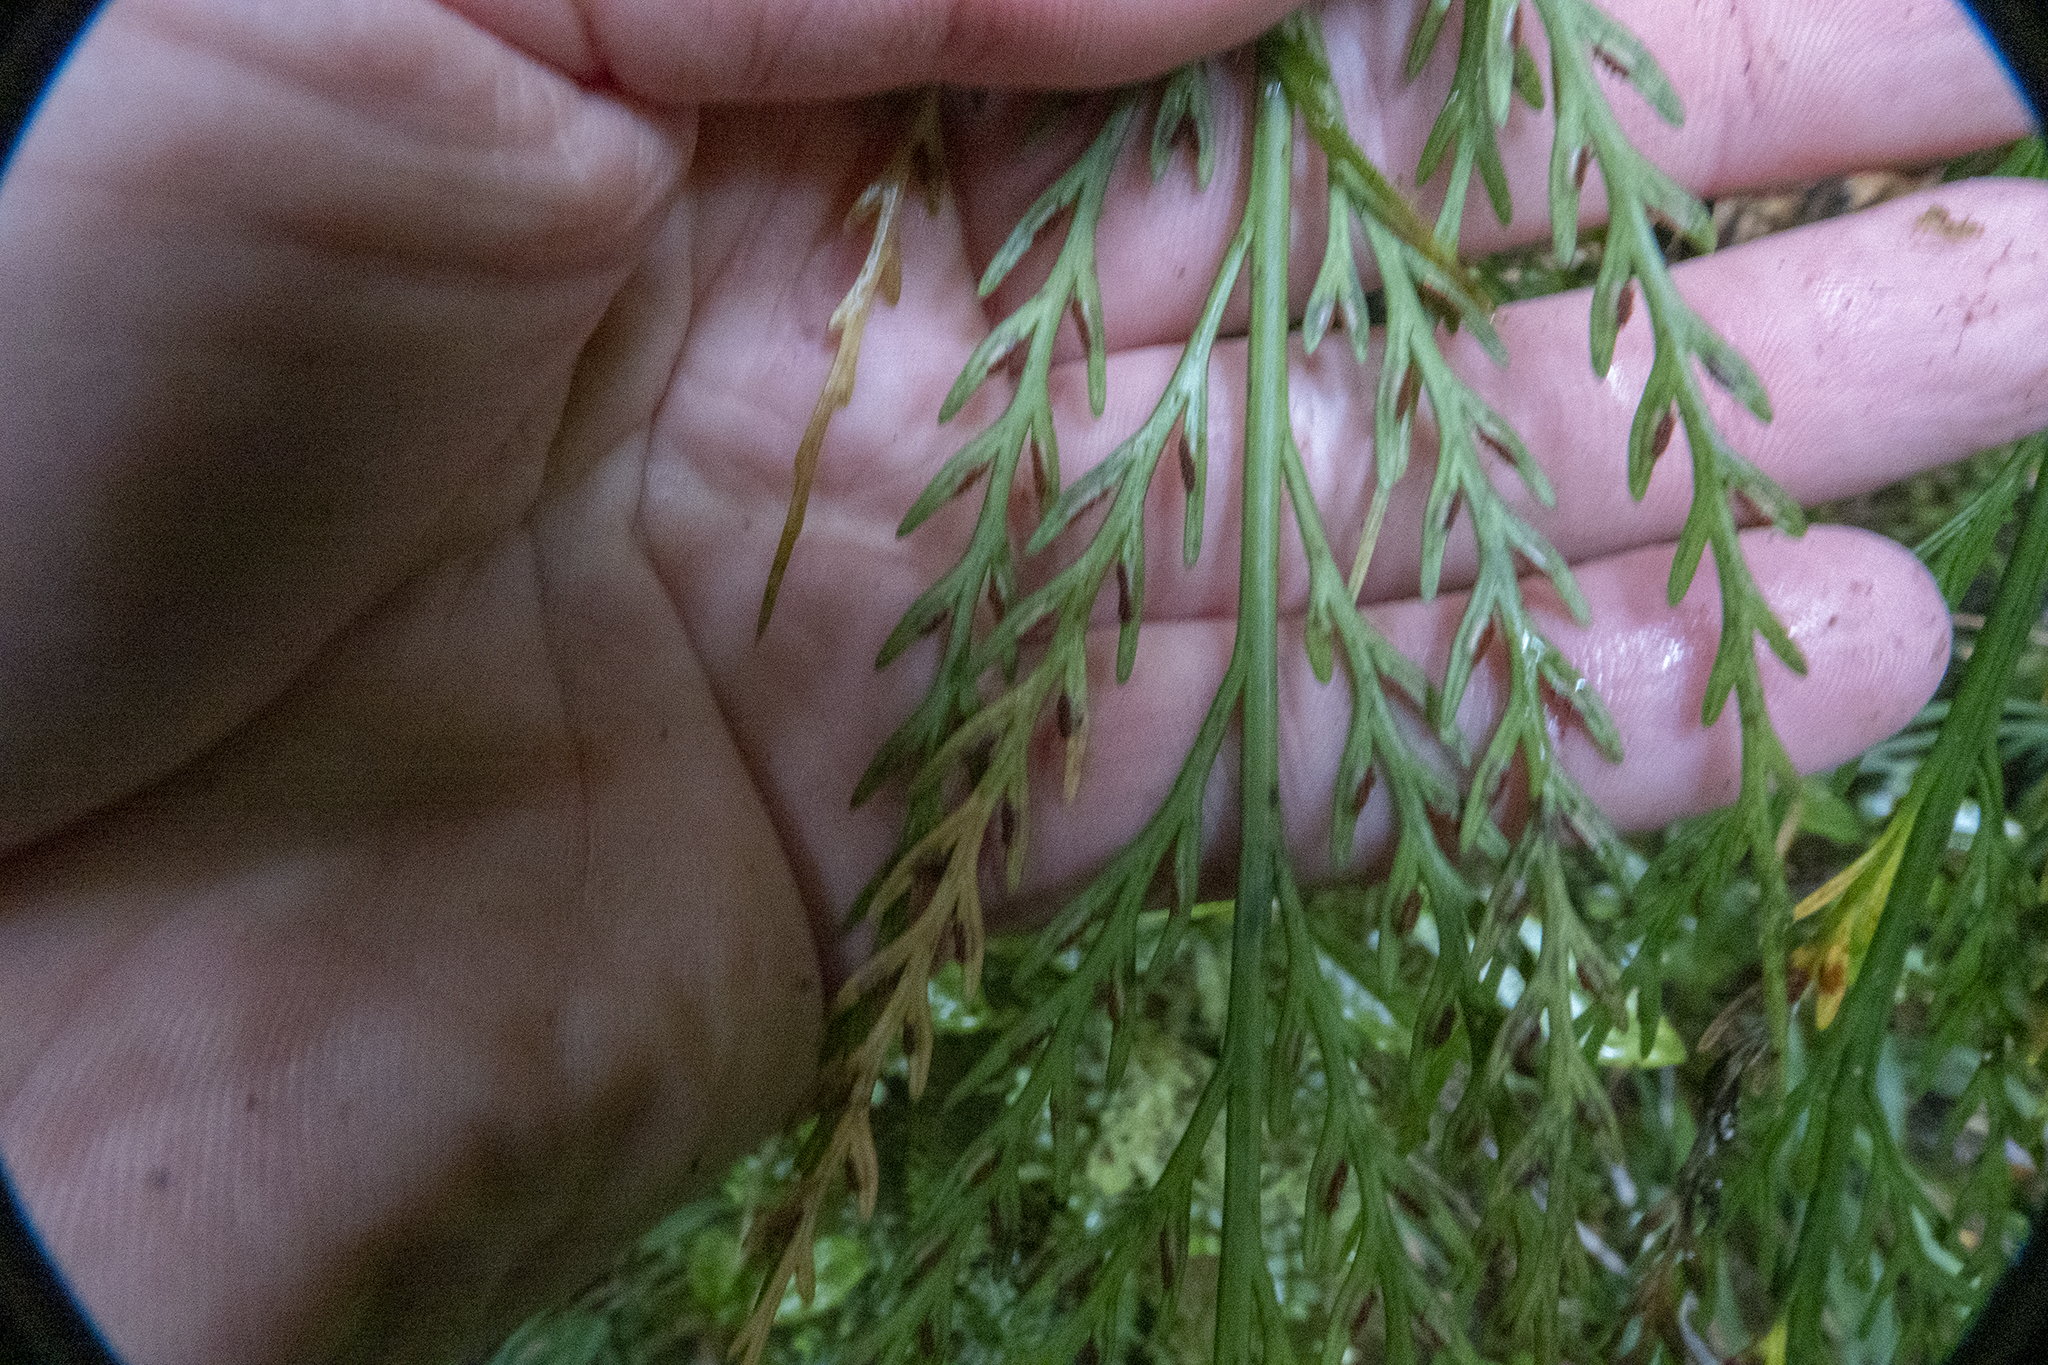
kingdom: Plantae
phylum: Tracheophyta
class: Polypodiopsida
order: Polypodiales
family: Aspleniaceae
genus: Asplenium
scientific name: Asplenium flaccidum
